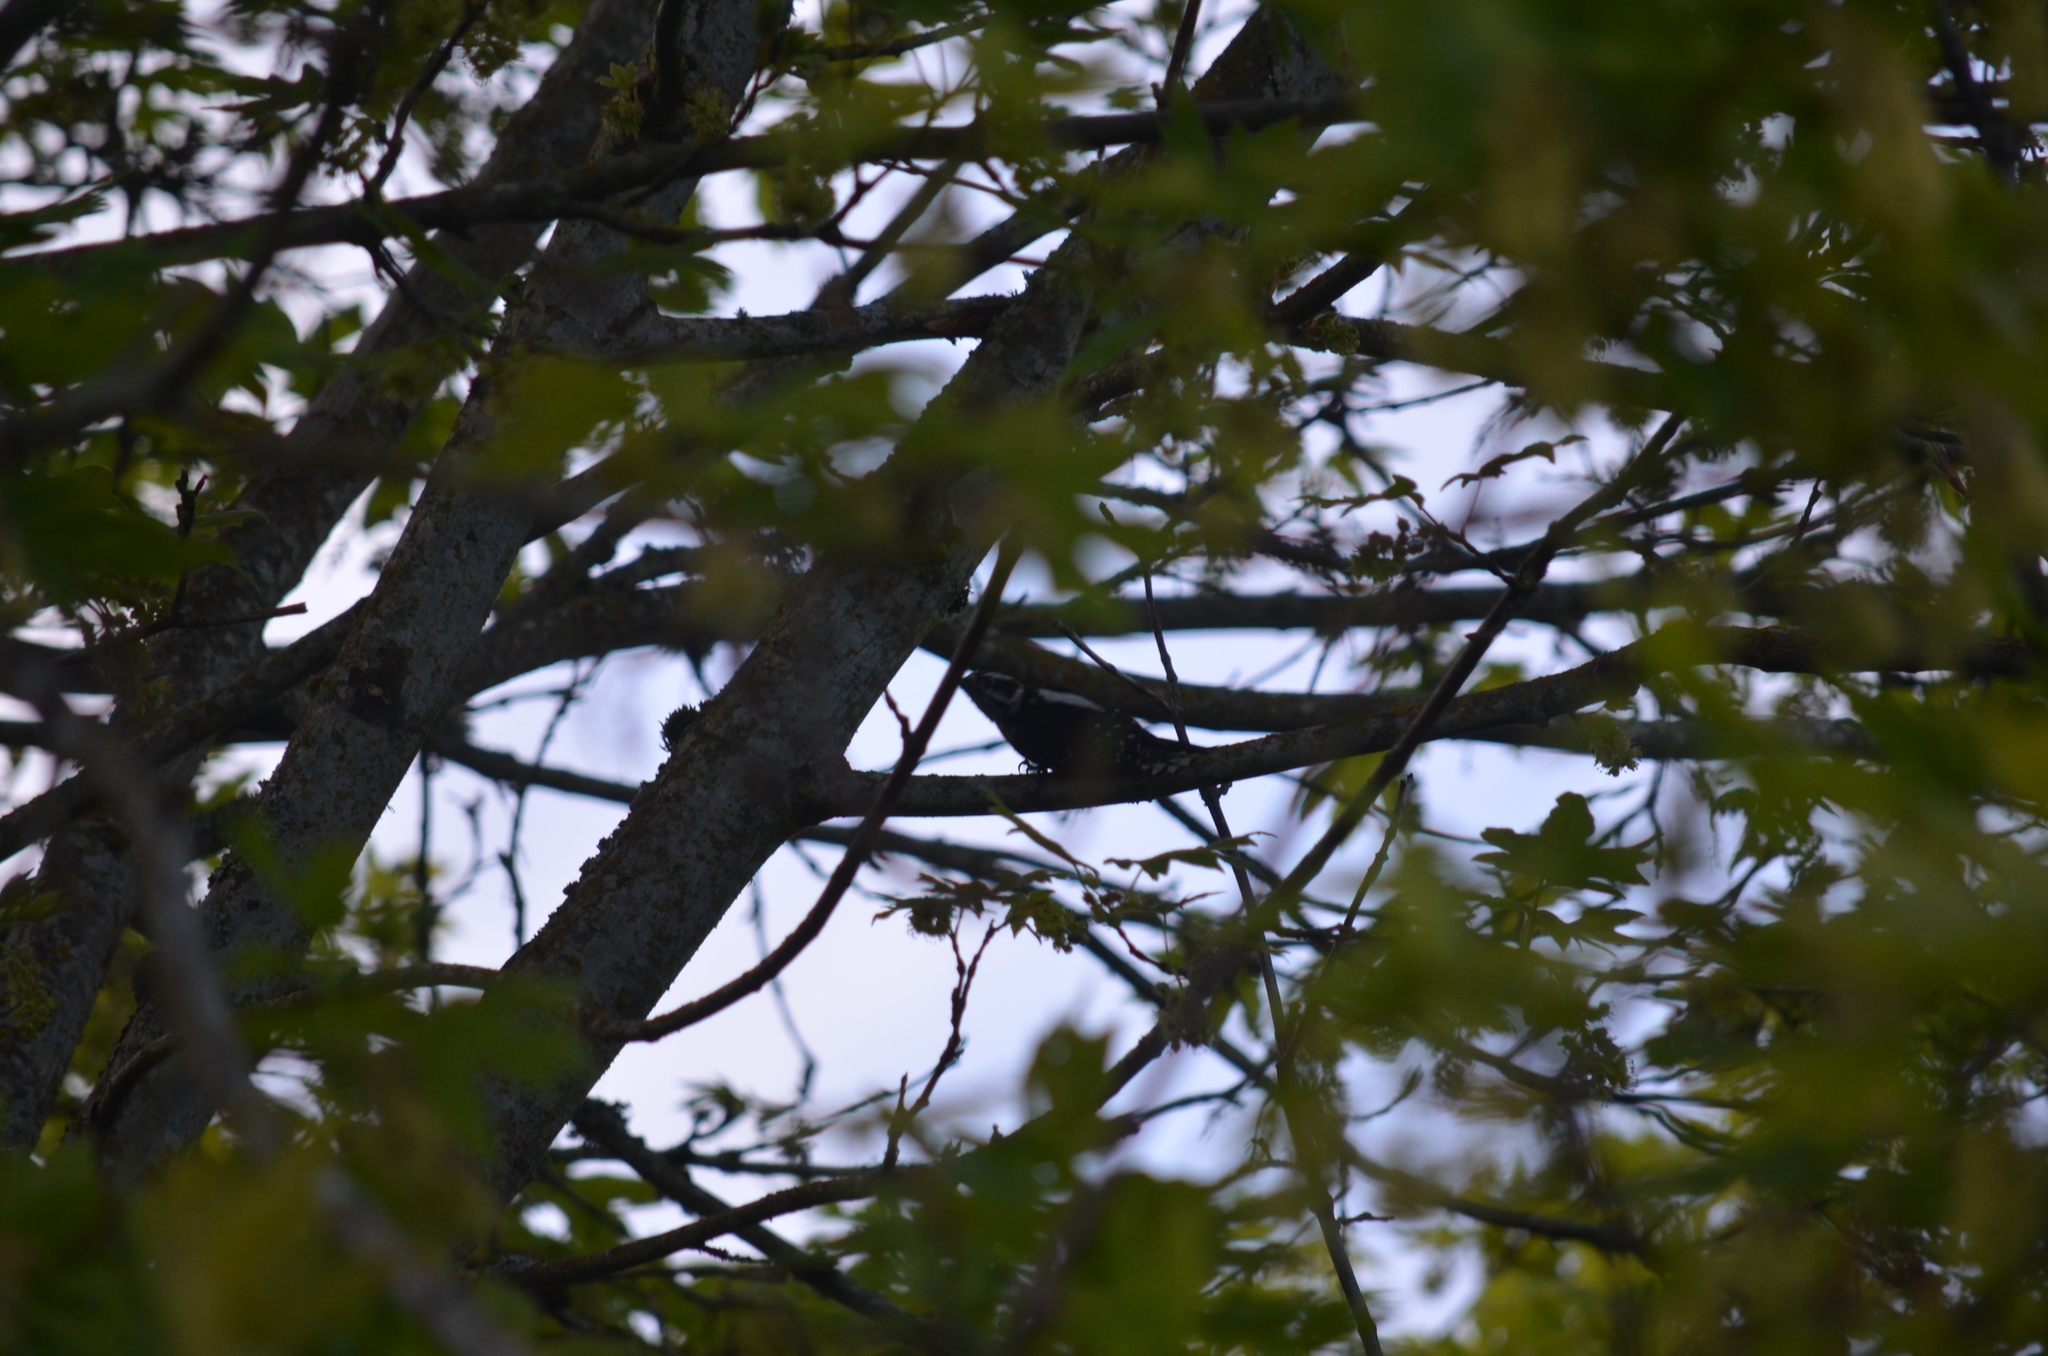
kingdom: Animalia
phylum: Chordata
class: Aves
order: Piciformes
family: Picidae
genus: Dryobates
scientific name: Dryobates pubescens
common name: Downy woodpecker
